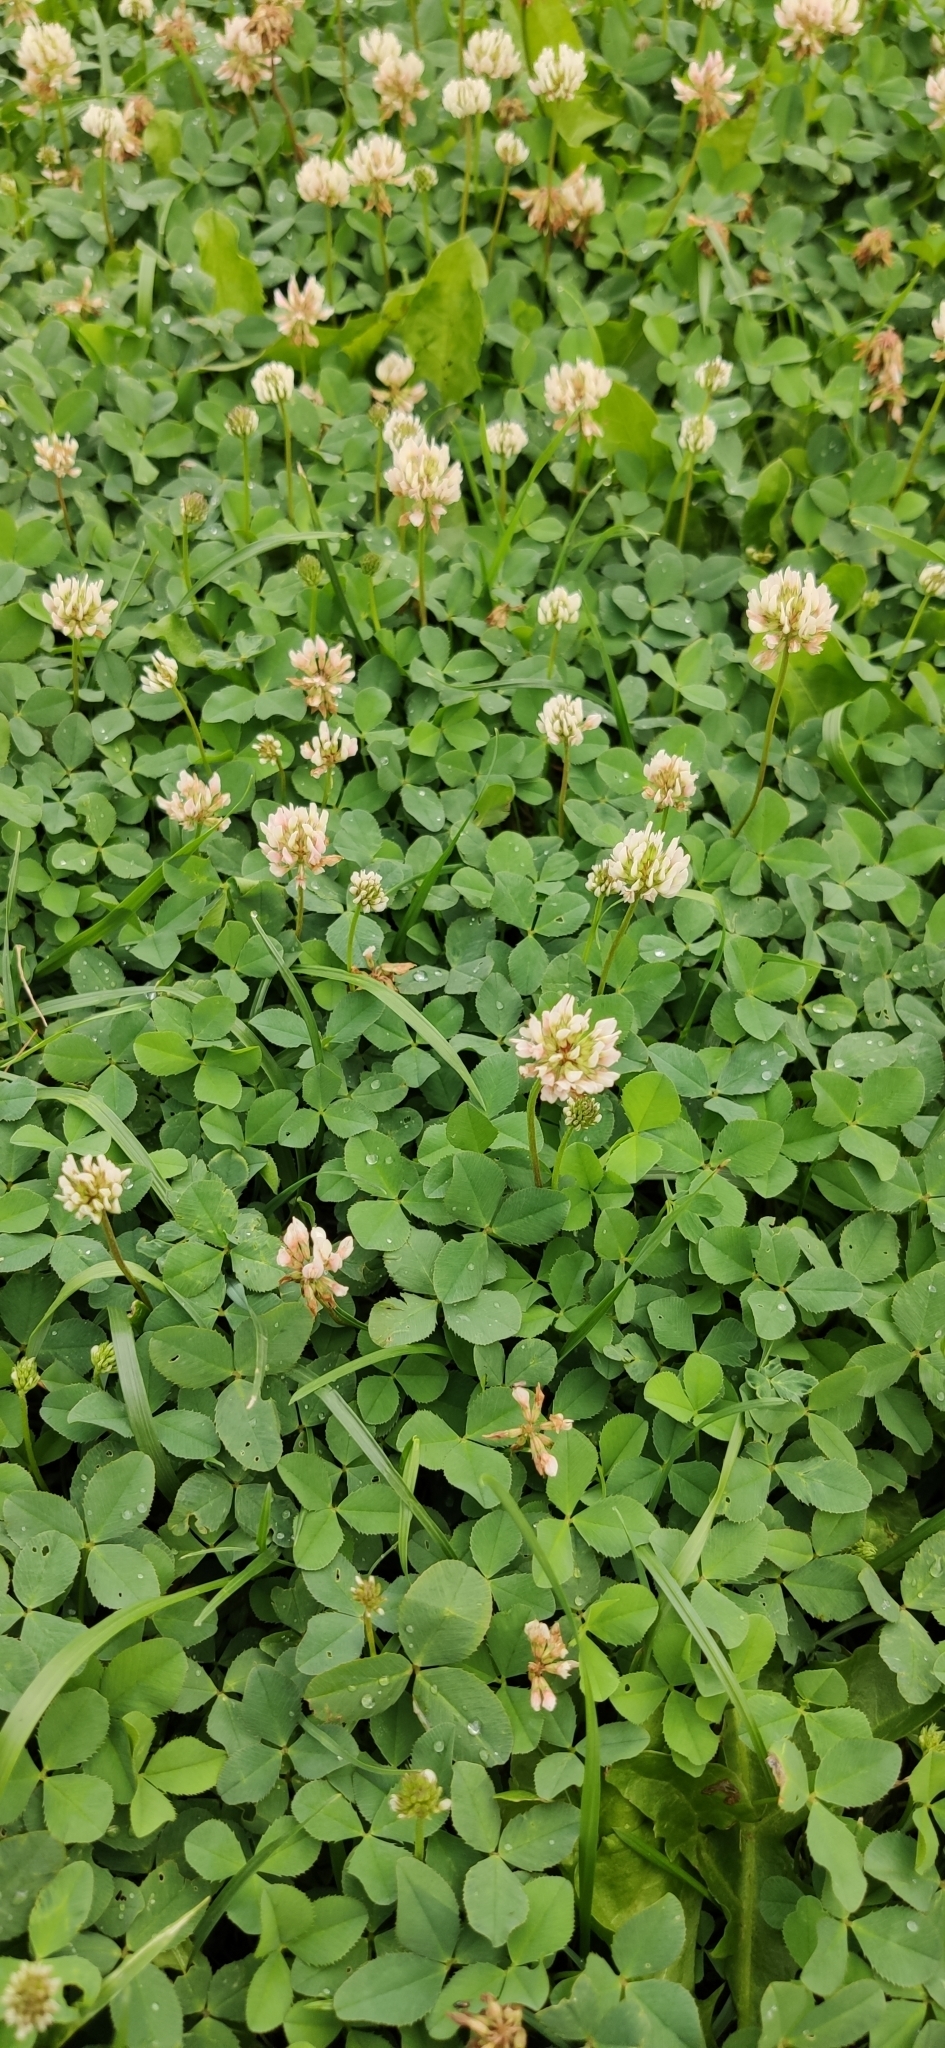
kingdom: Plantae
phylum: Tracheophyta
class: Magnoliopsida
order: Fabales
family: Fabaceae
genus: Trifolium
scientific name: Trifolium repens
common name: White clover
